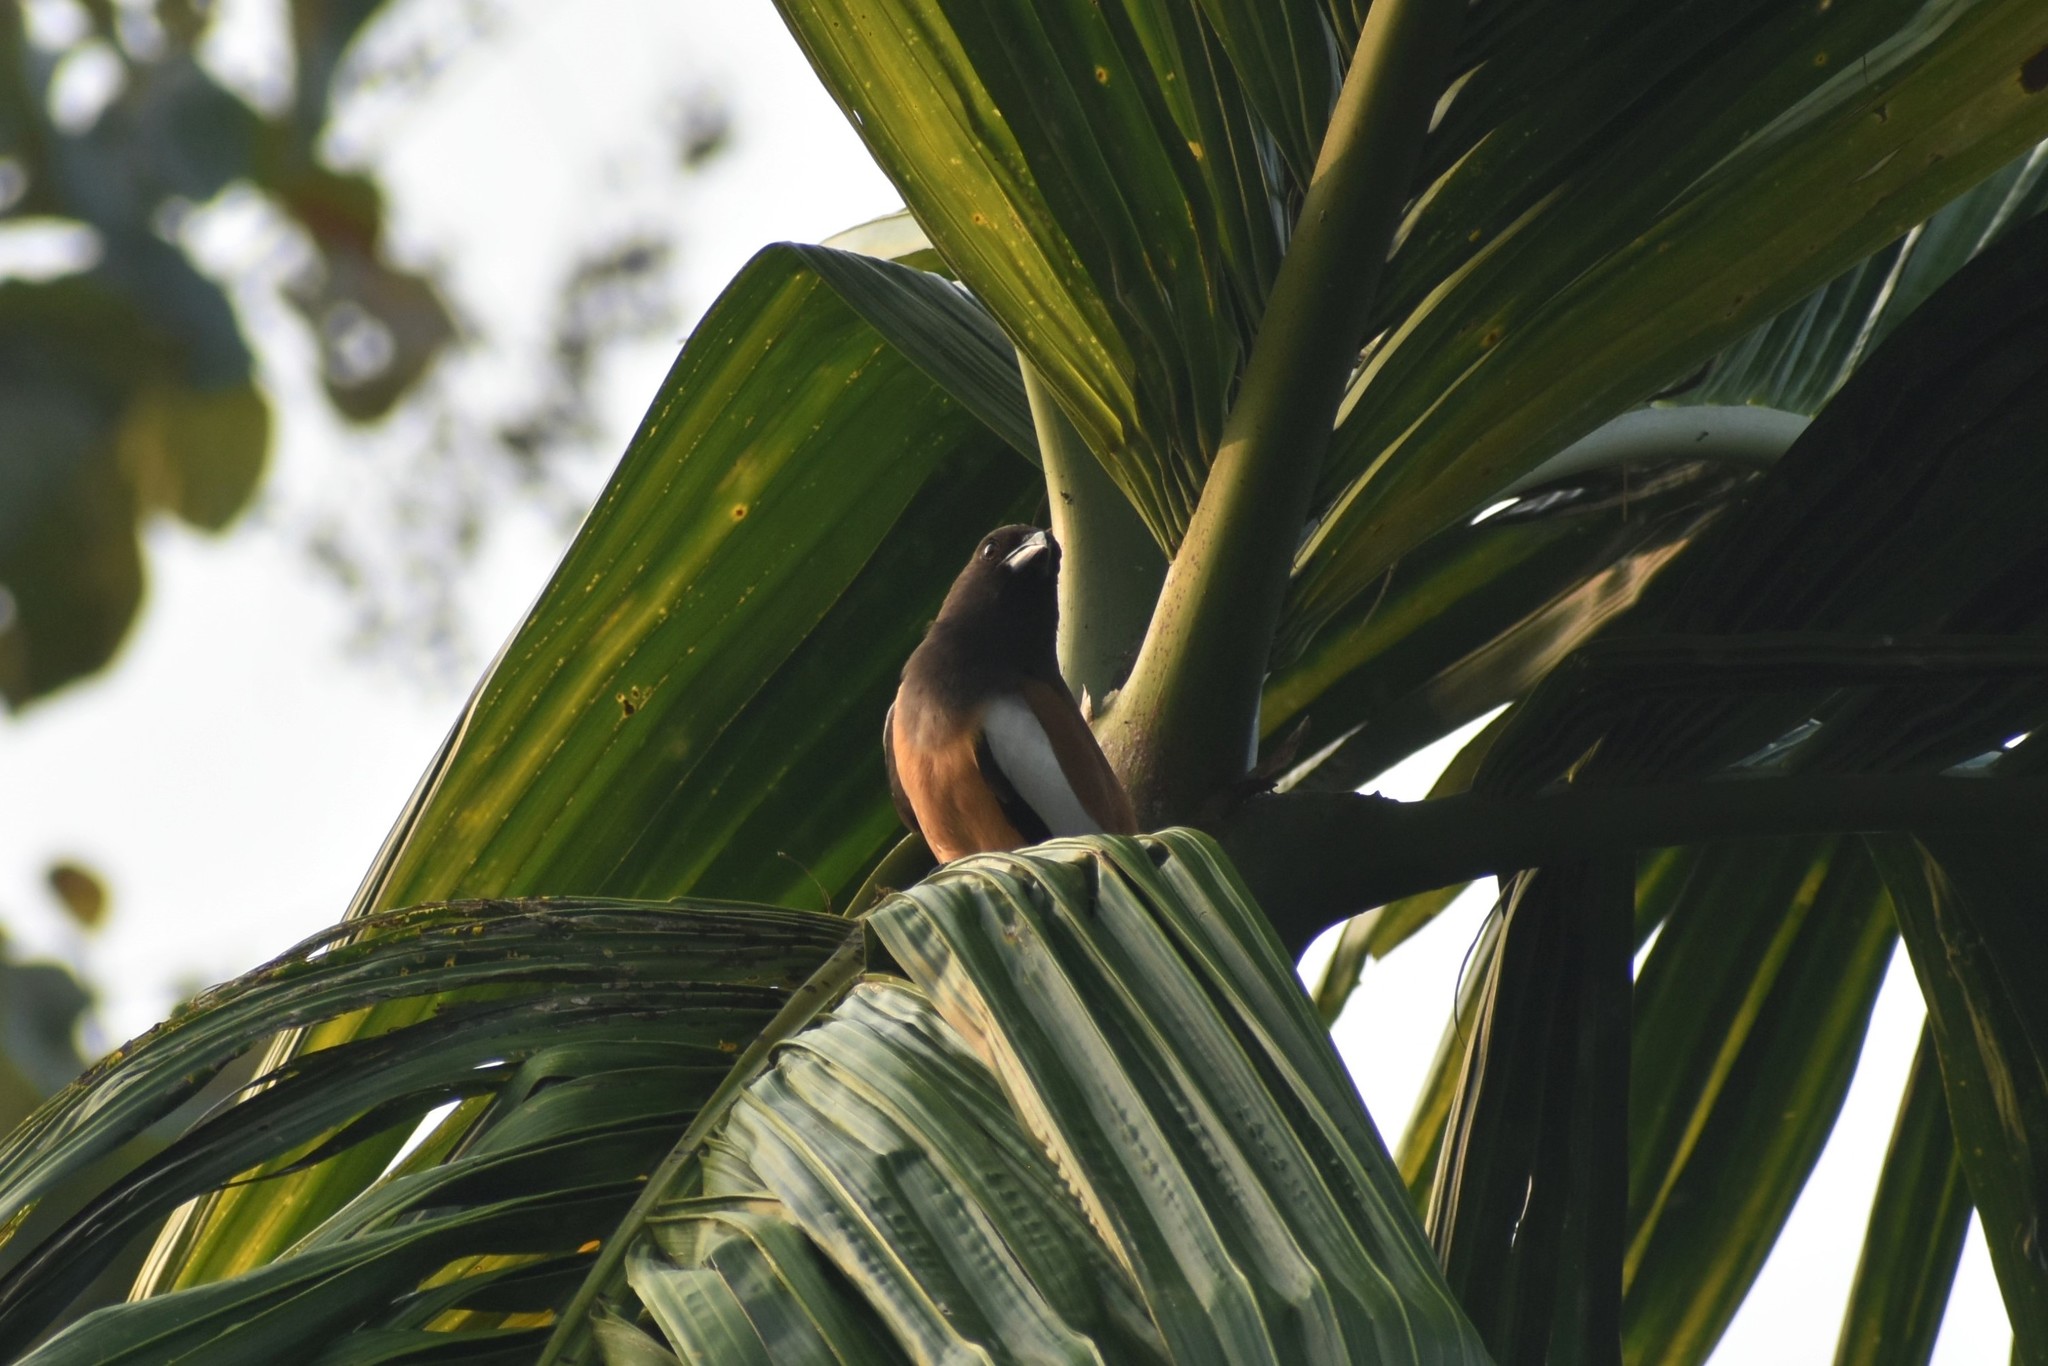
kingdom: Animalia
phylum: Chordata
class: Aves
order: Passeriformes
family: Corvidae
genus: Dendrocitta
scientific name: Dendrocitta vagabunda
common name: Rufous treepie
